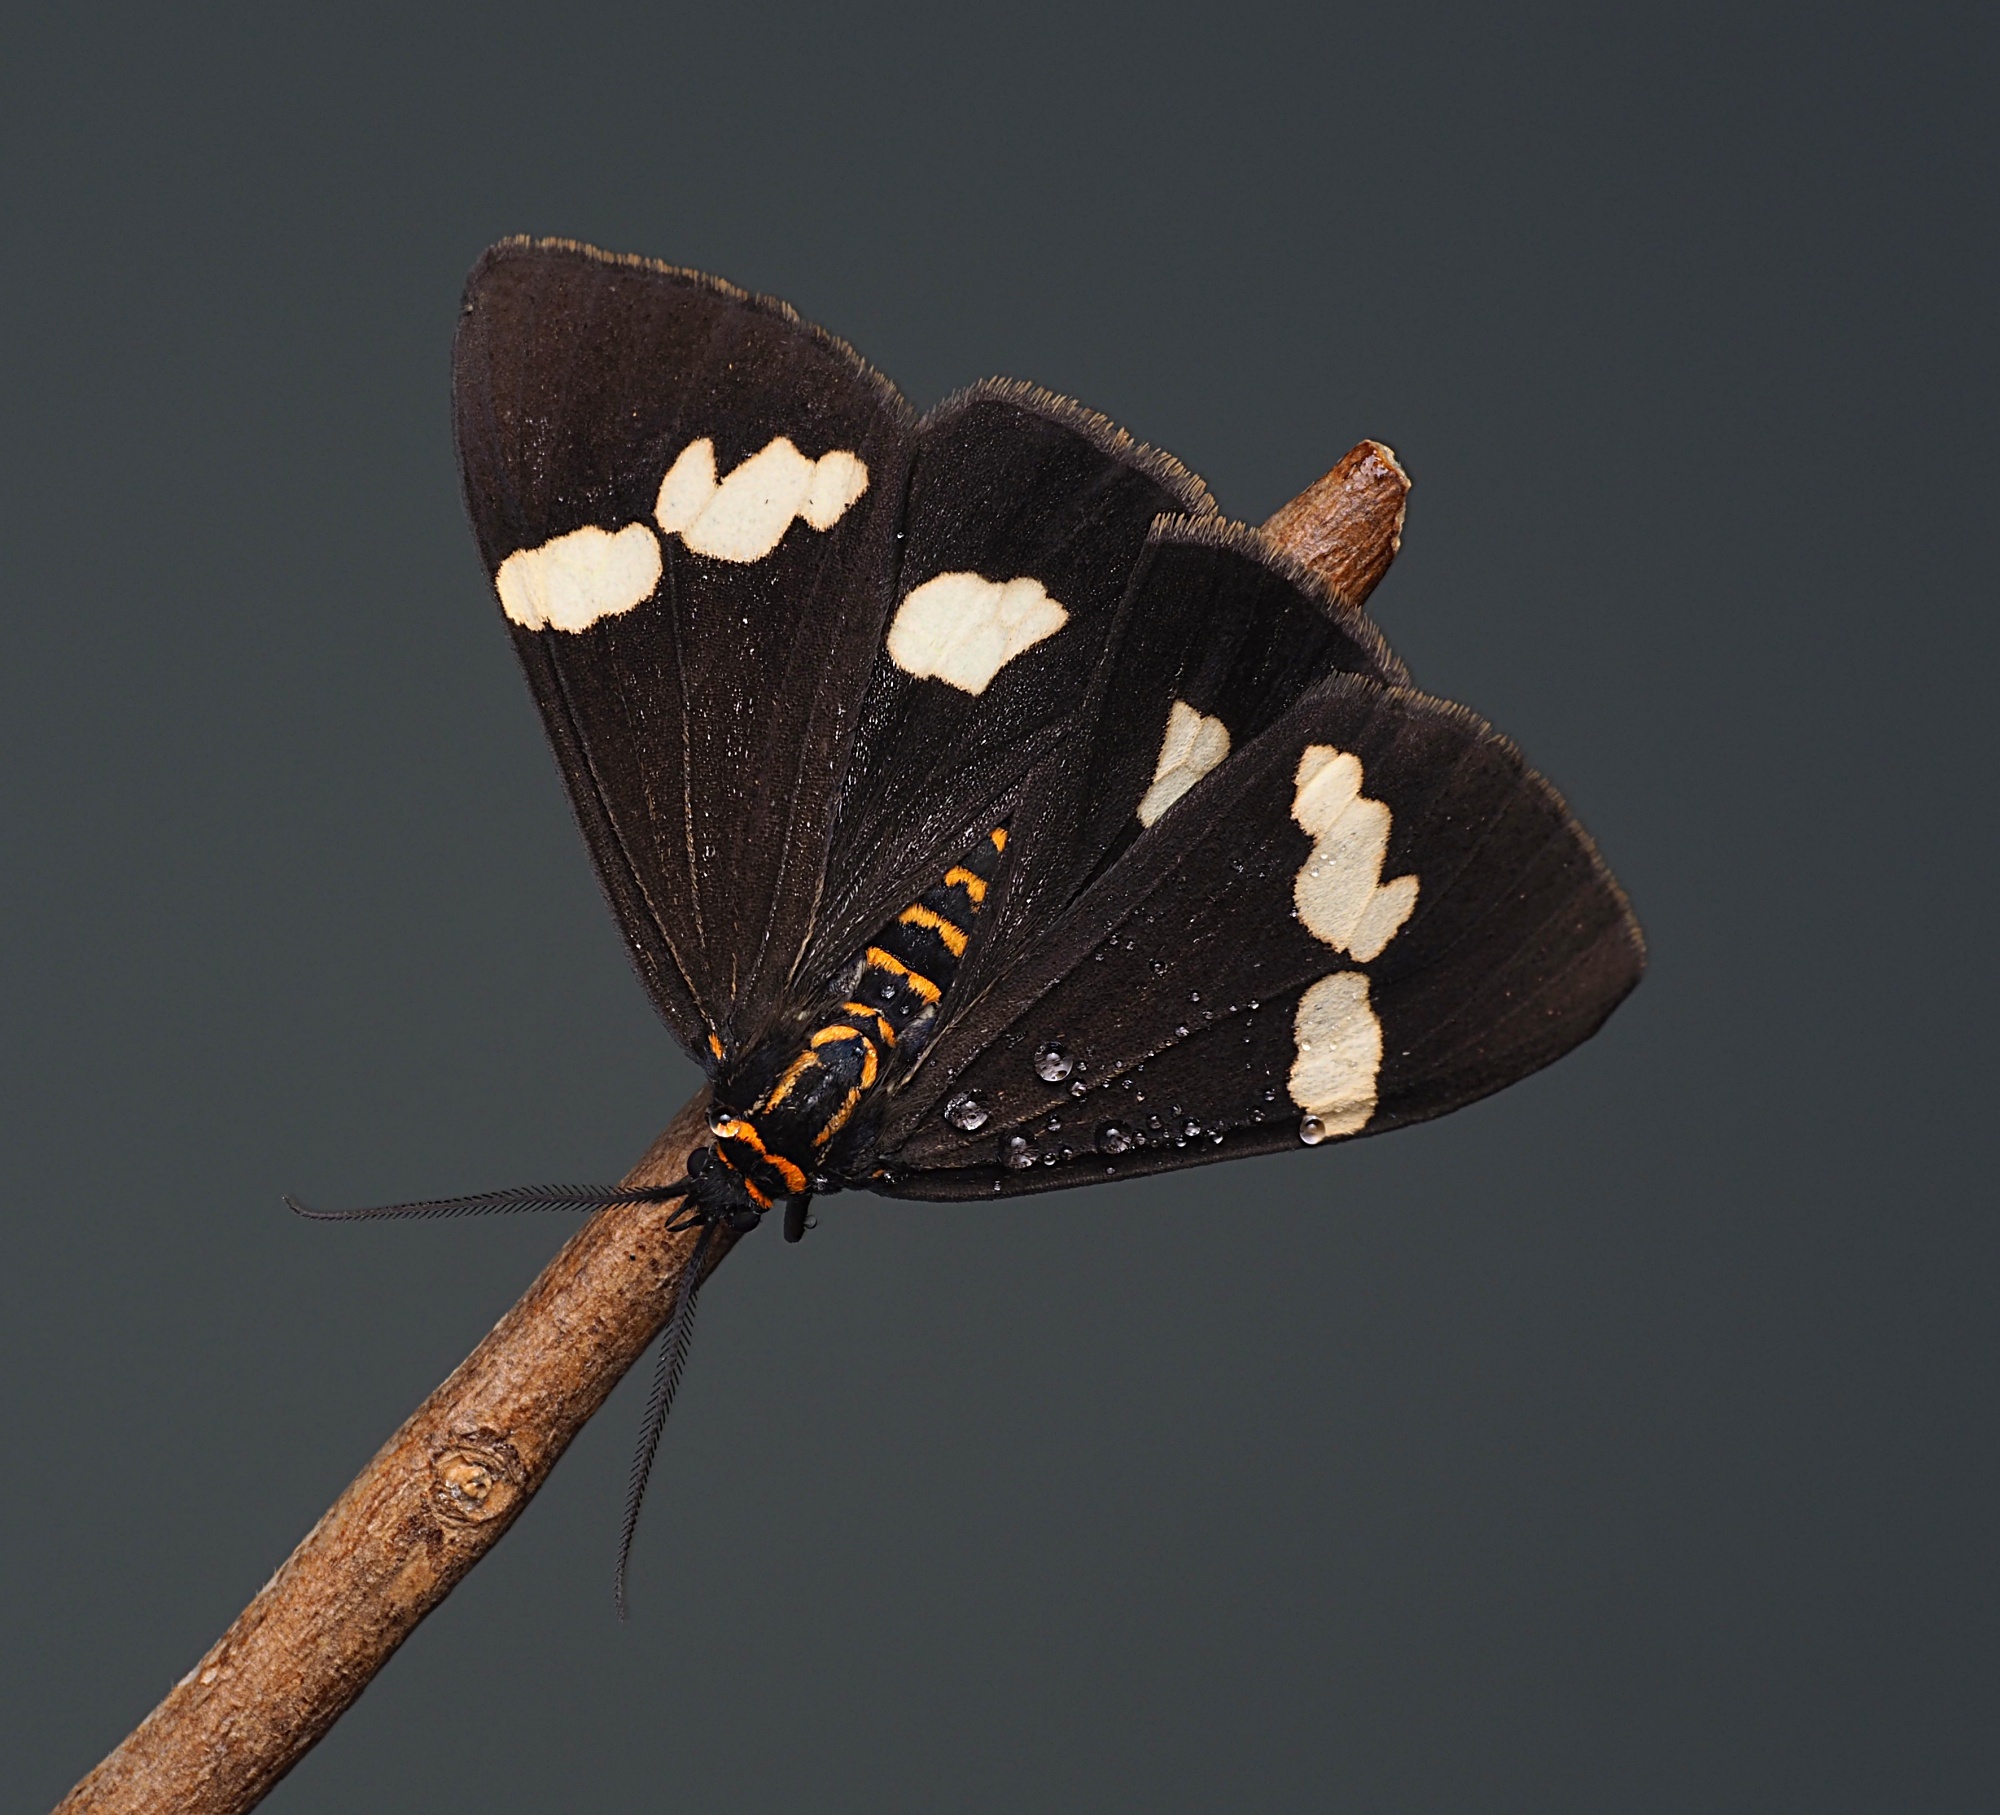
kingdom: Animalia
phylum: Arthropoda
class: Insecta
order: Lepidoptera
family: Erebidae
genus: Nyctemera
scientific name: Nyctemera
